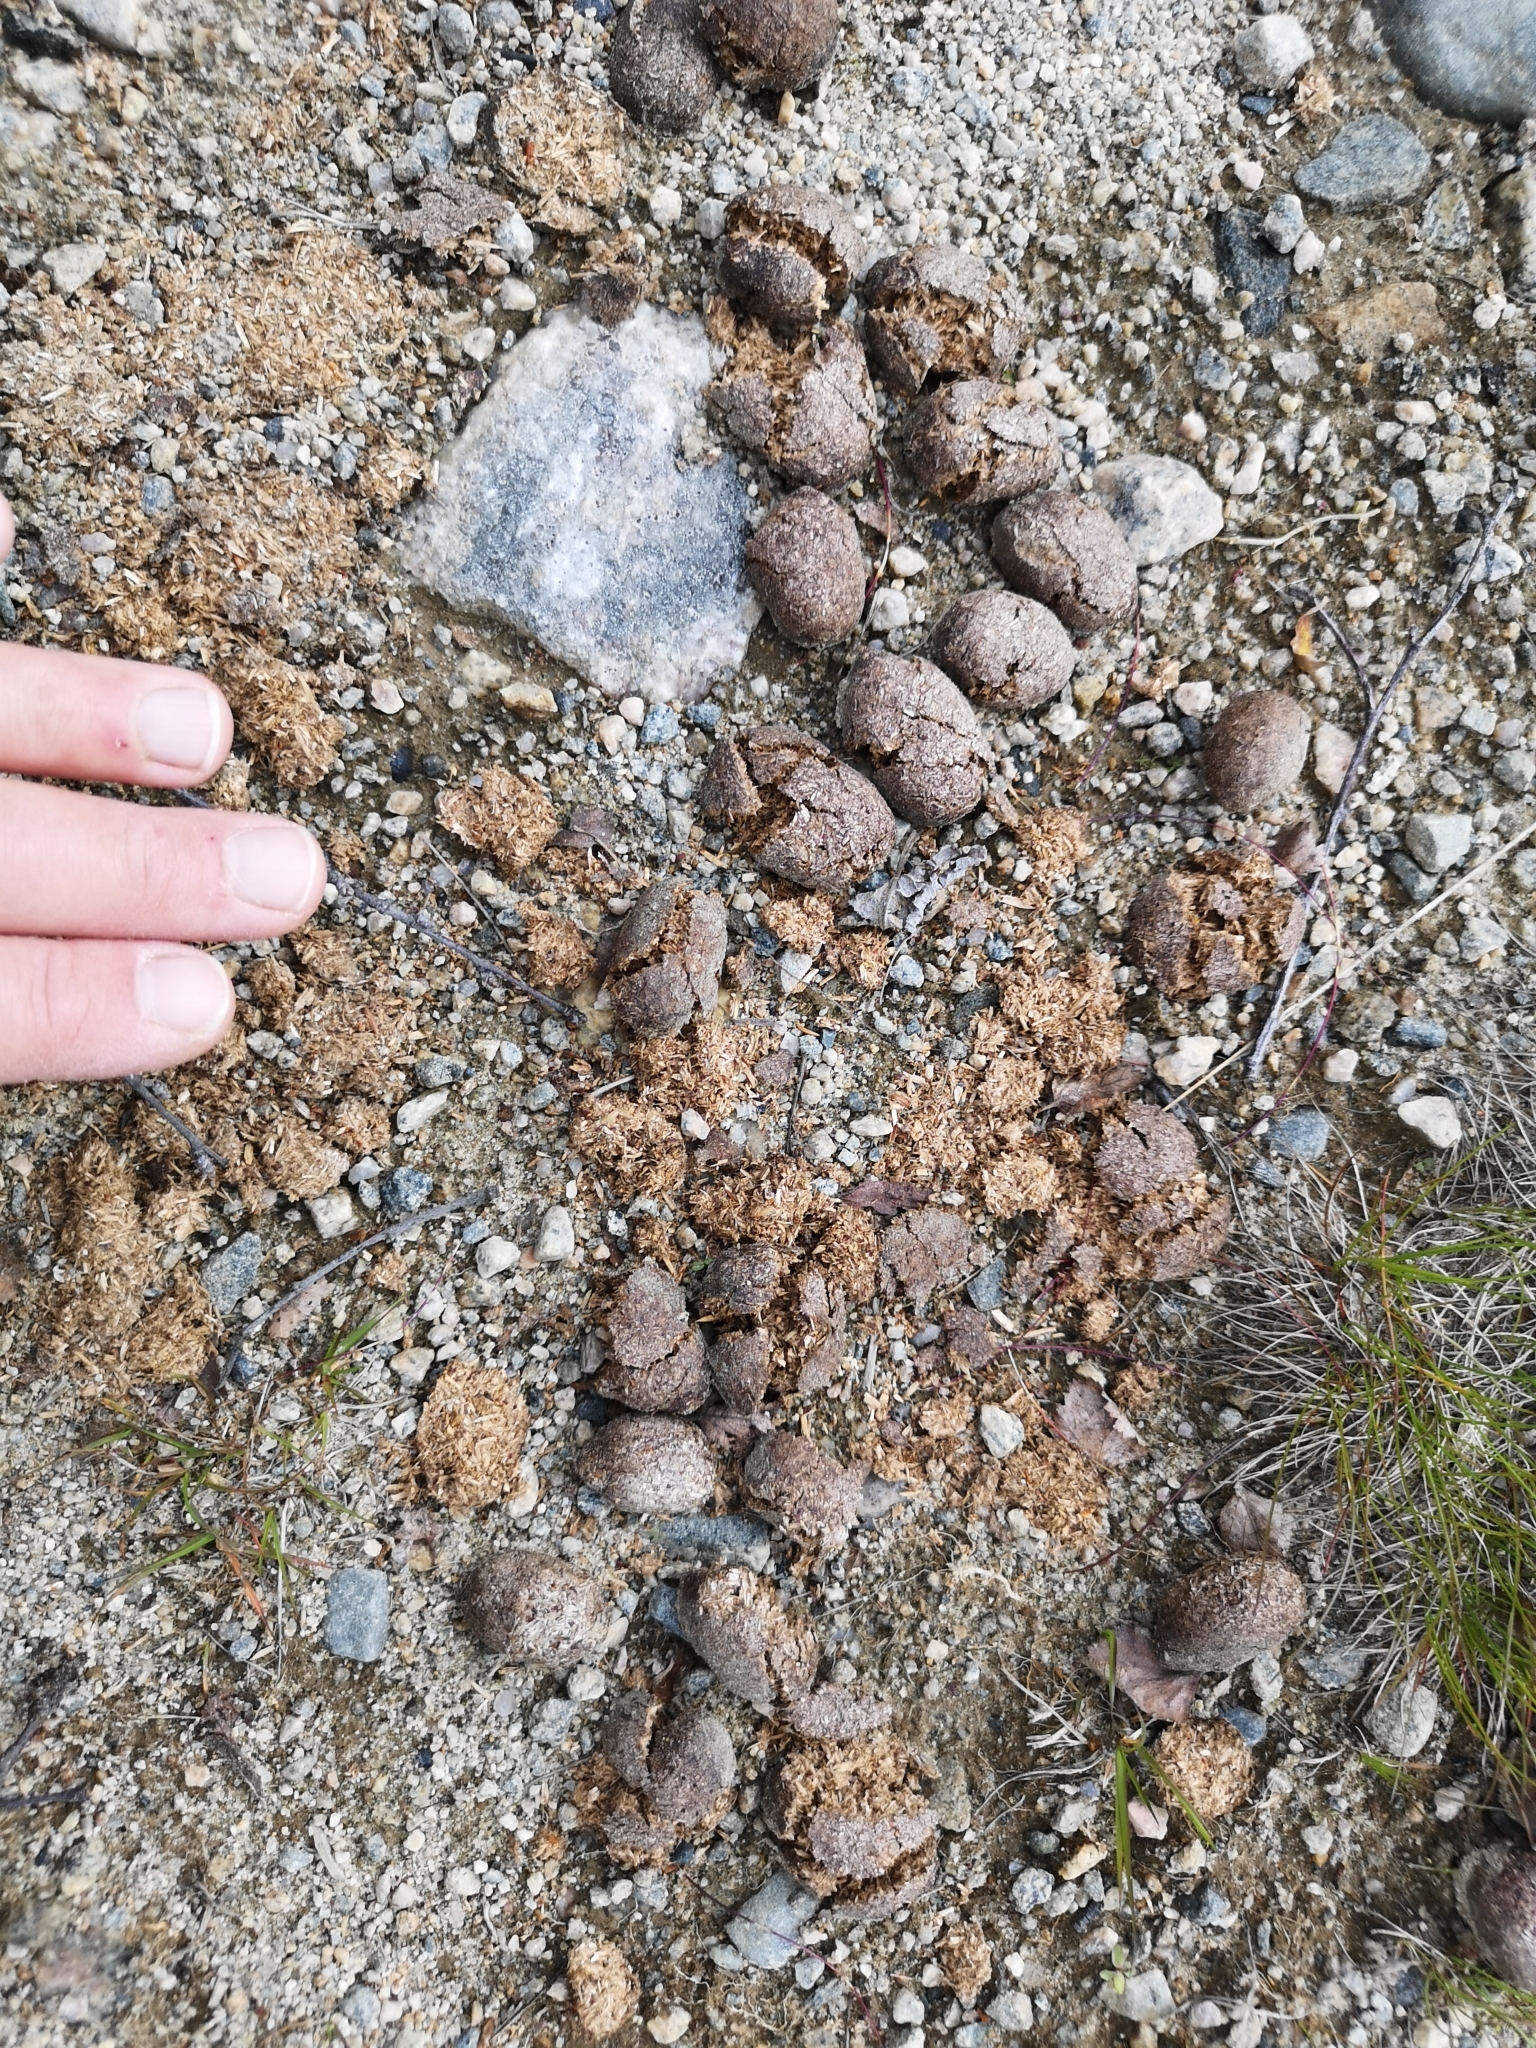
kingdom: Animalia
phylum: Chordata
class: Mammalia
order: Artiodactyla
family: Cervidae
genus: Alces
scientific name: Alces alces
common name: Moose
